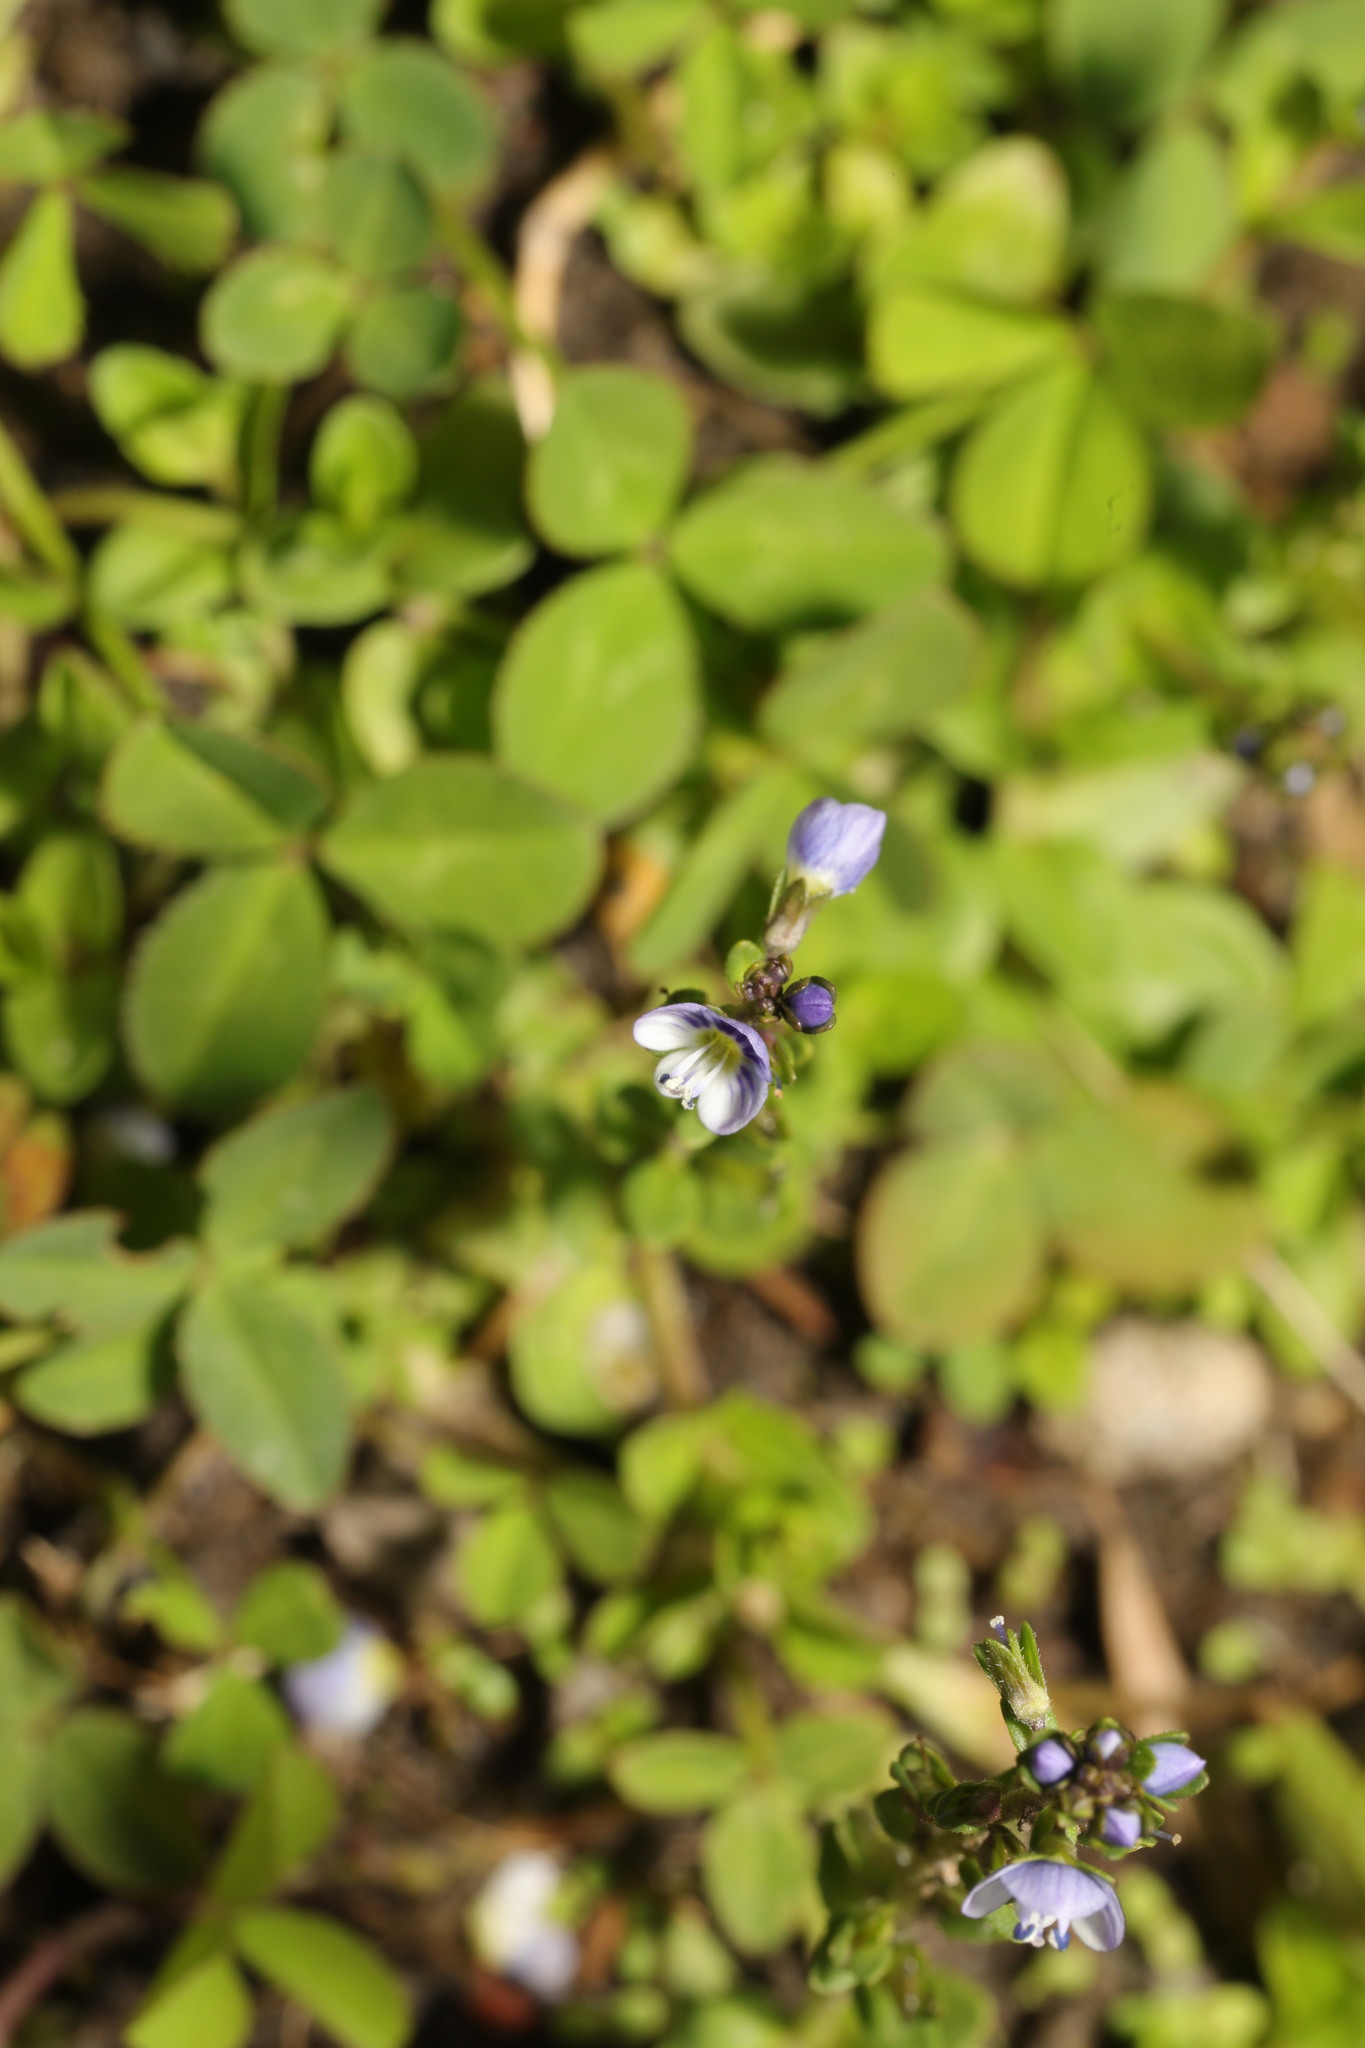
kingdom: Plantae
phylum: Tracheophyta
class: Magnoliopsida
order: Lamiales
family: Plantaginaceae
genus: Veronica
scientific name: Veronica serpyllifolia
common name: Thyme-leaved speedwell
